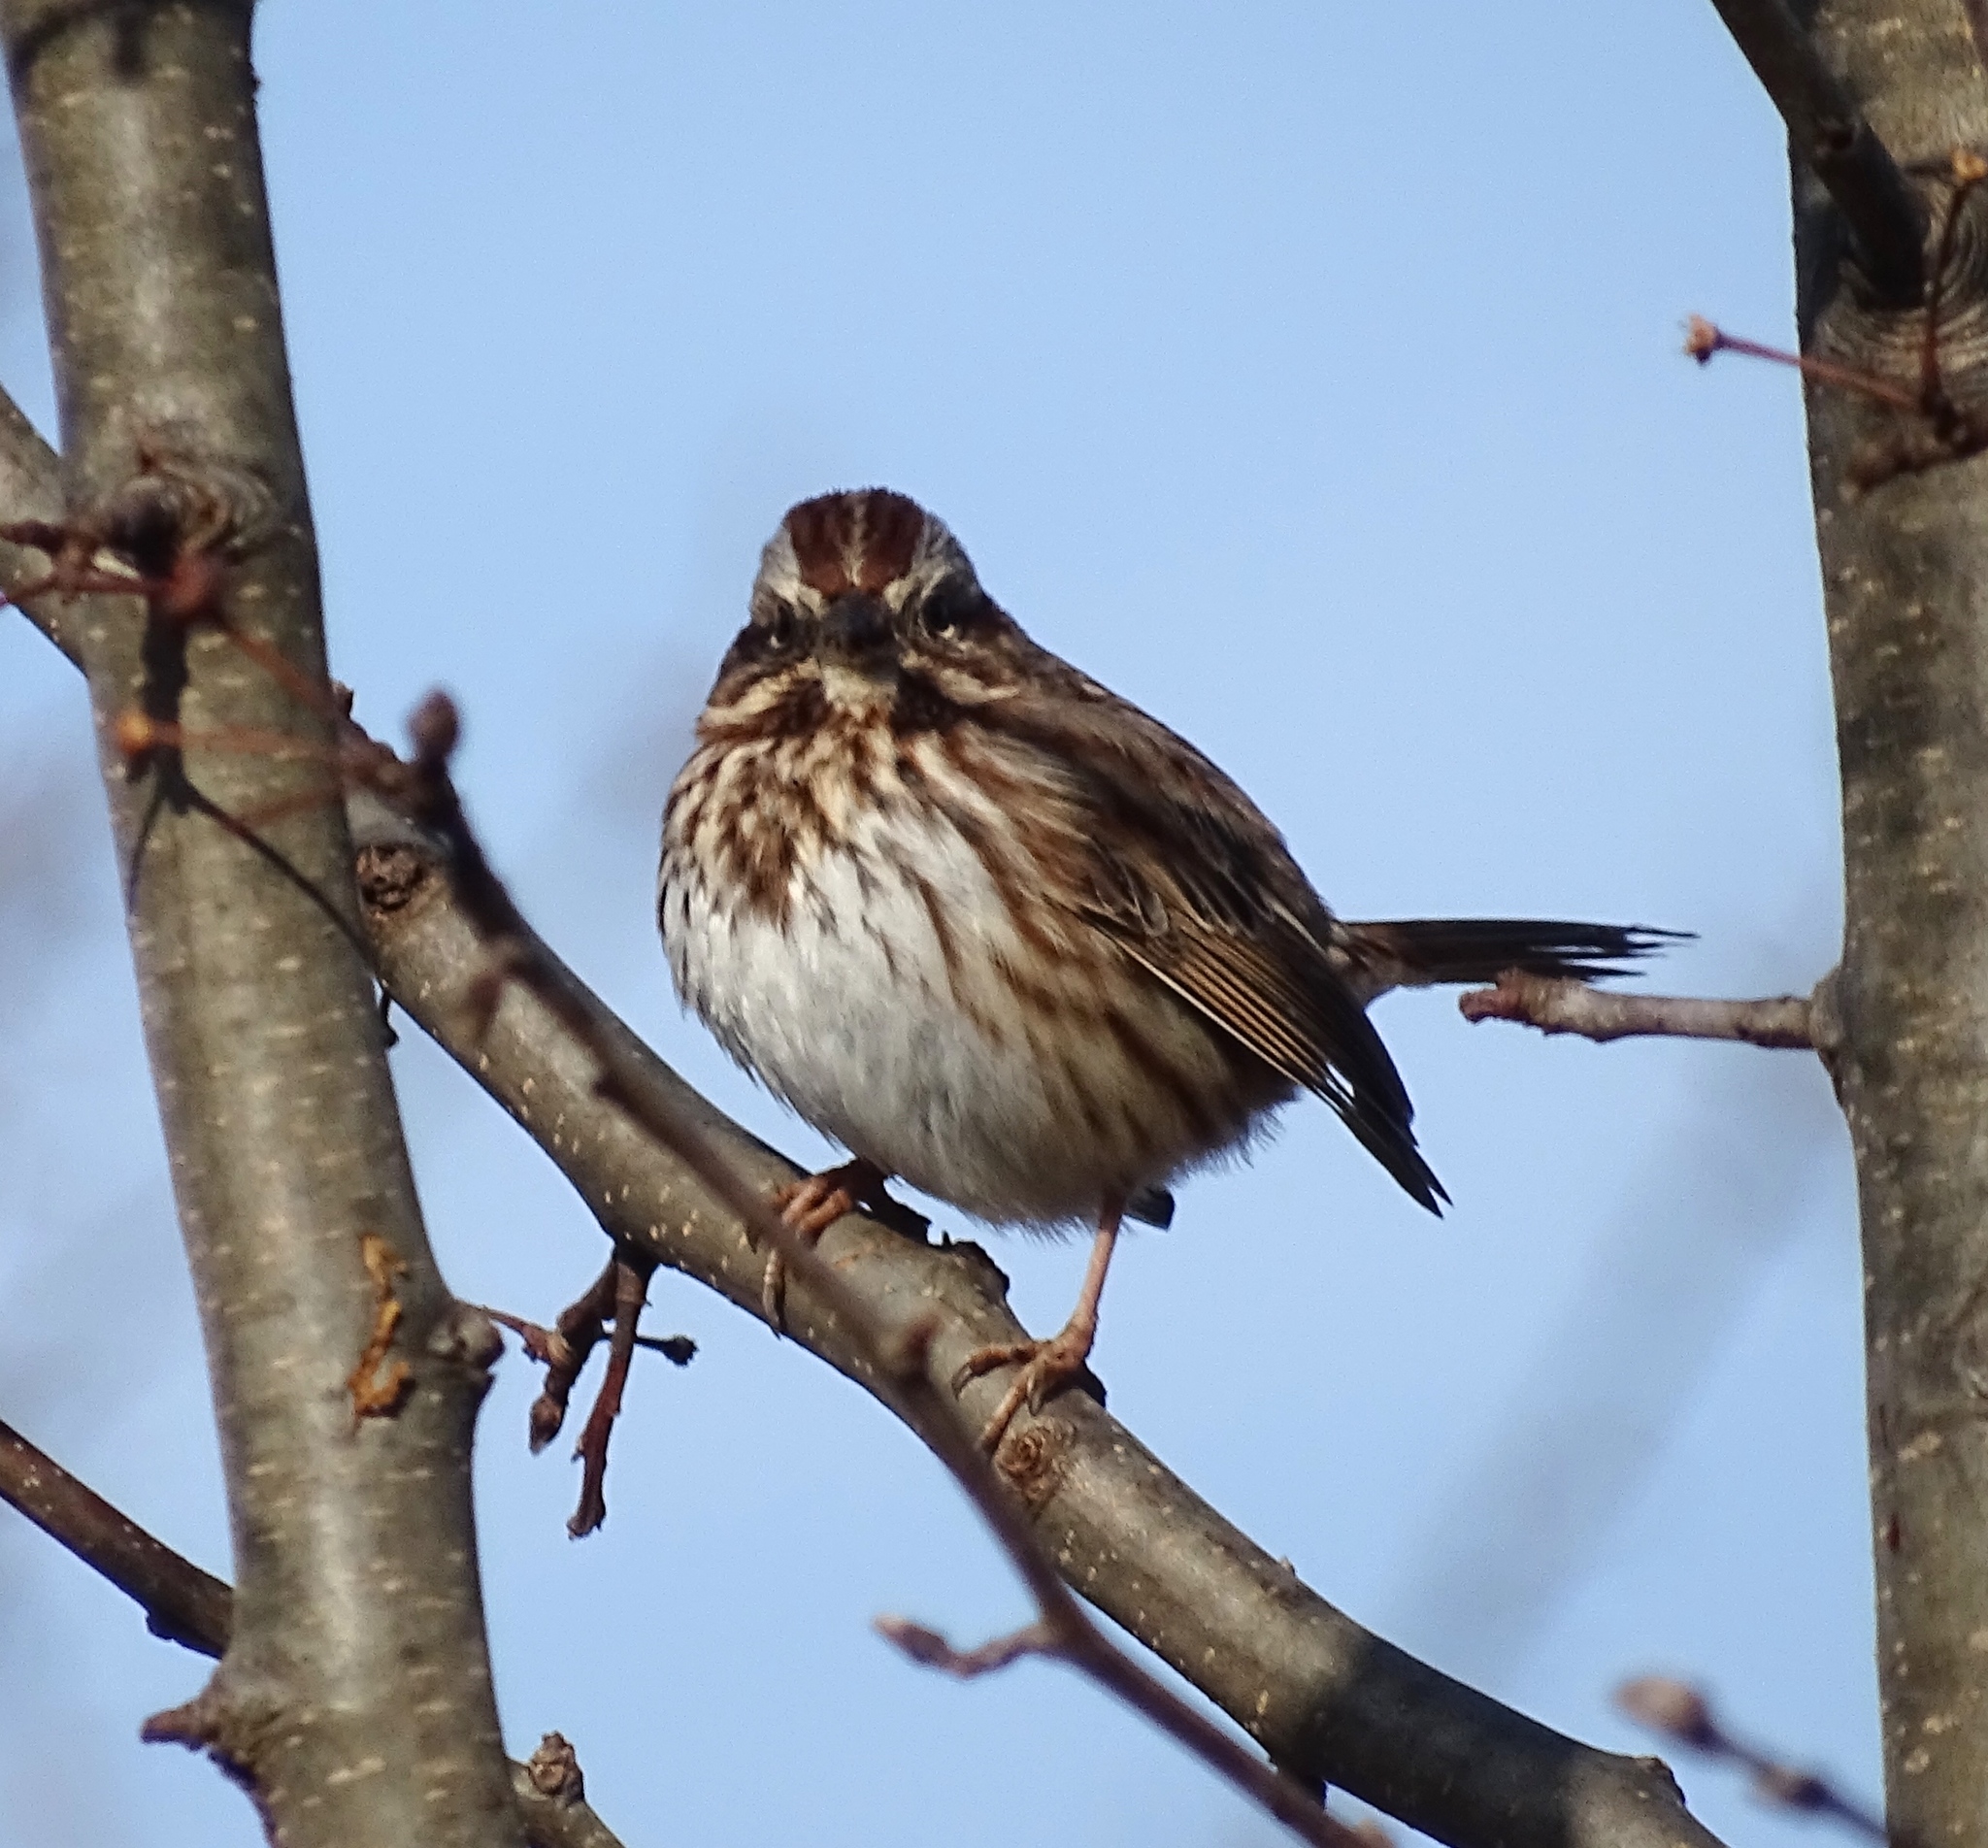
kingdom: Animalia
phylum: Chordata
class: Aves
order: Passeriformes
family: Passerellidae
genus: Melospiza
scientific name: Melospiza melodia
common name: Song sparrow
